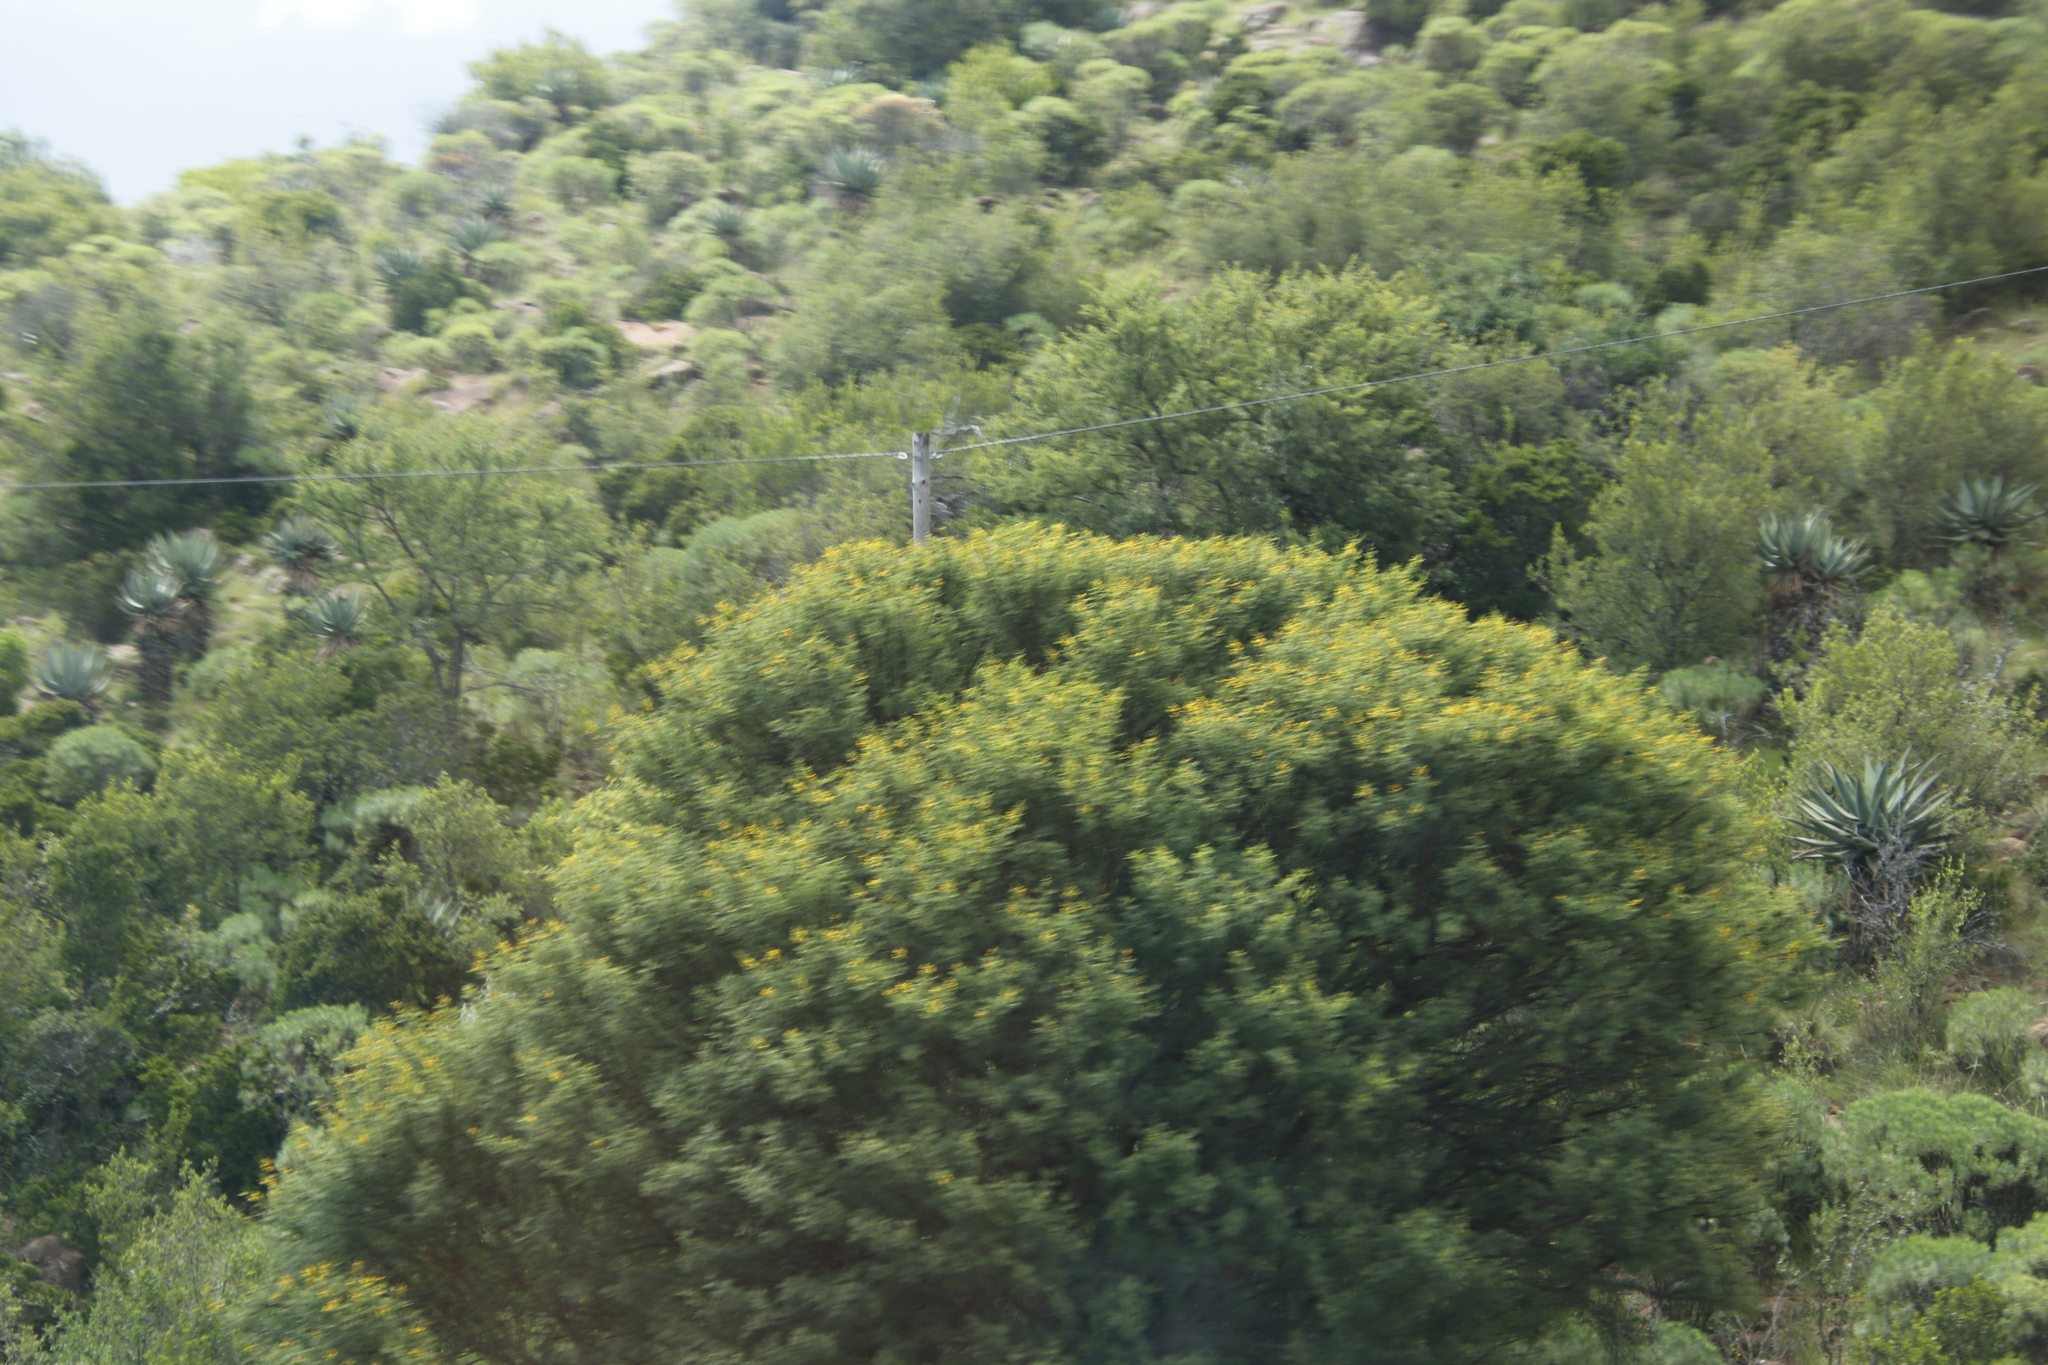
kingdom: Plantae
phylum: Tracheophyta
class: Magnoliopsida
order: Fabales
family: Fabaceae
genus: Vachellia
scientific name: Vachellia karroo
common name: Sweet thorn
